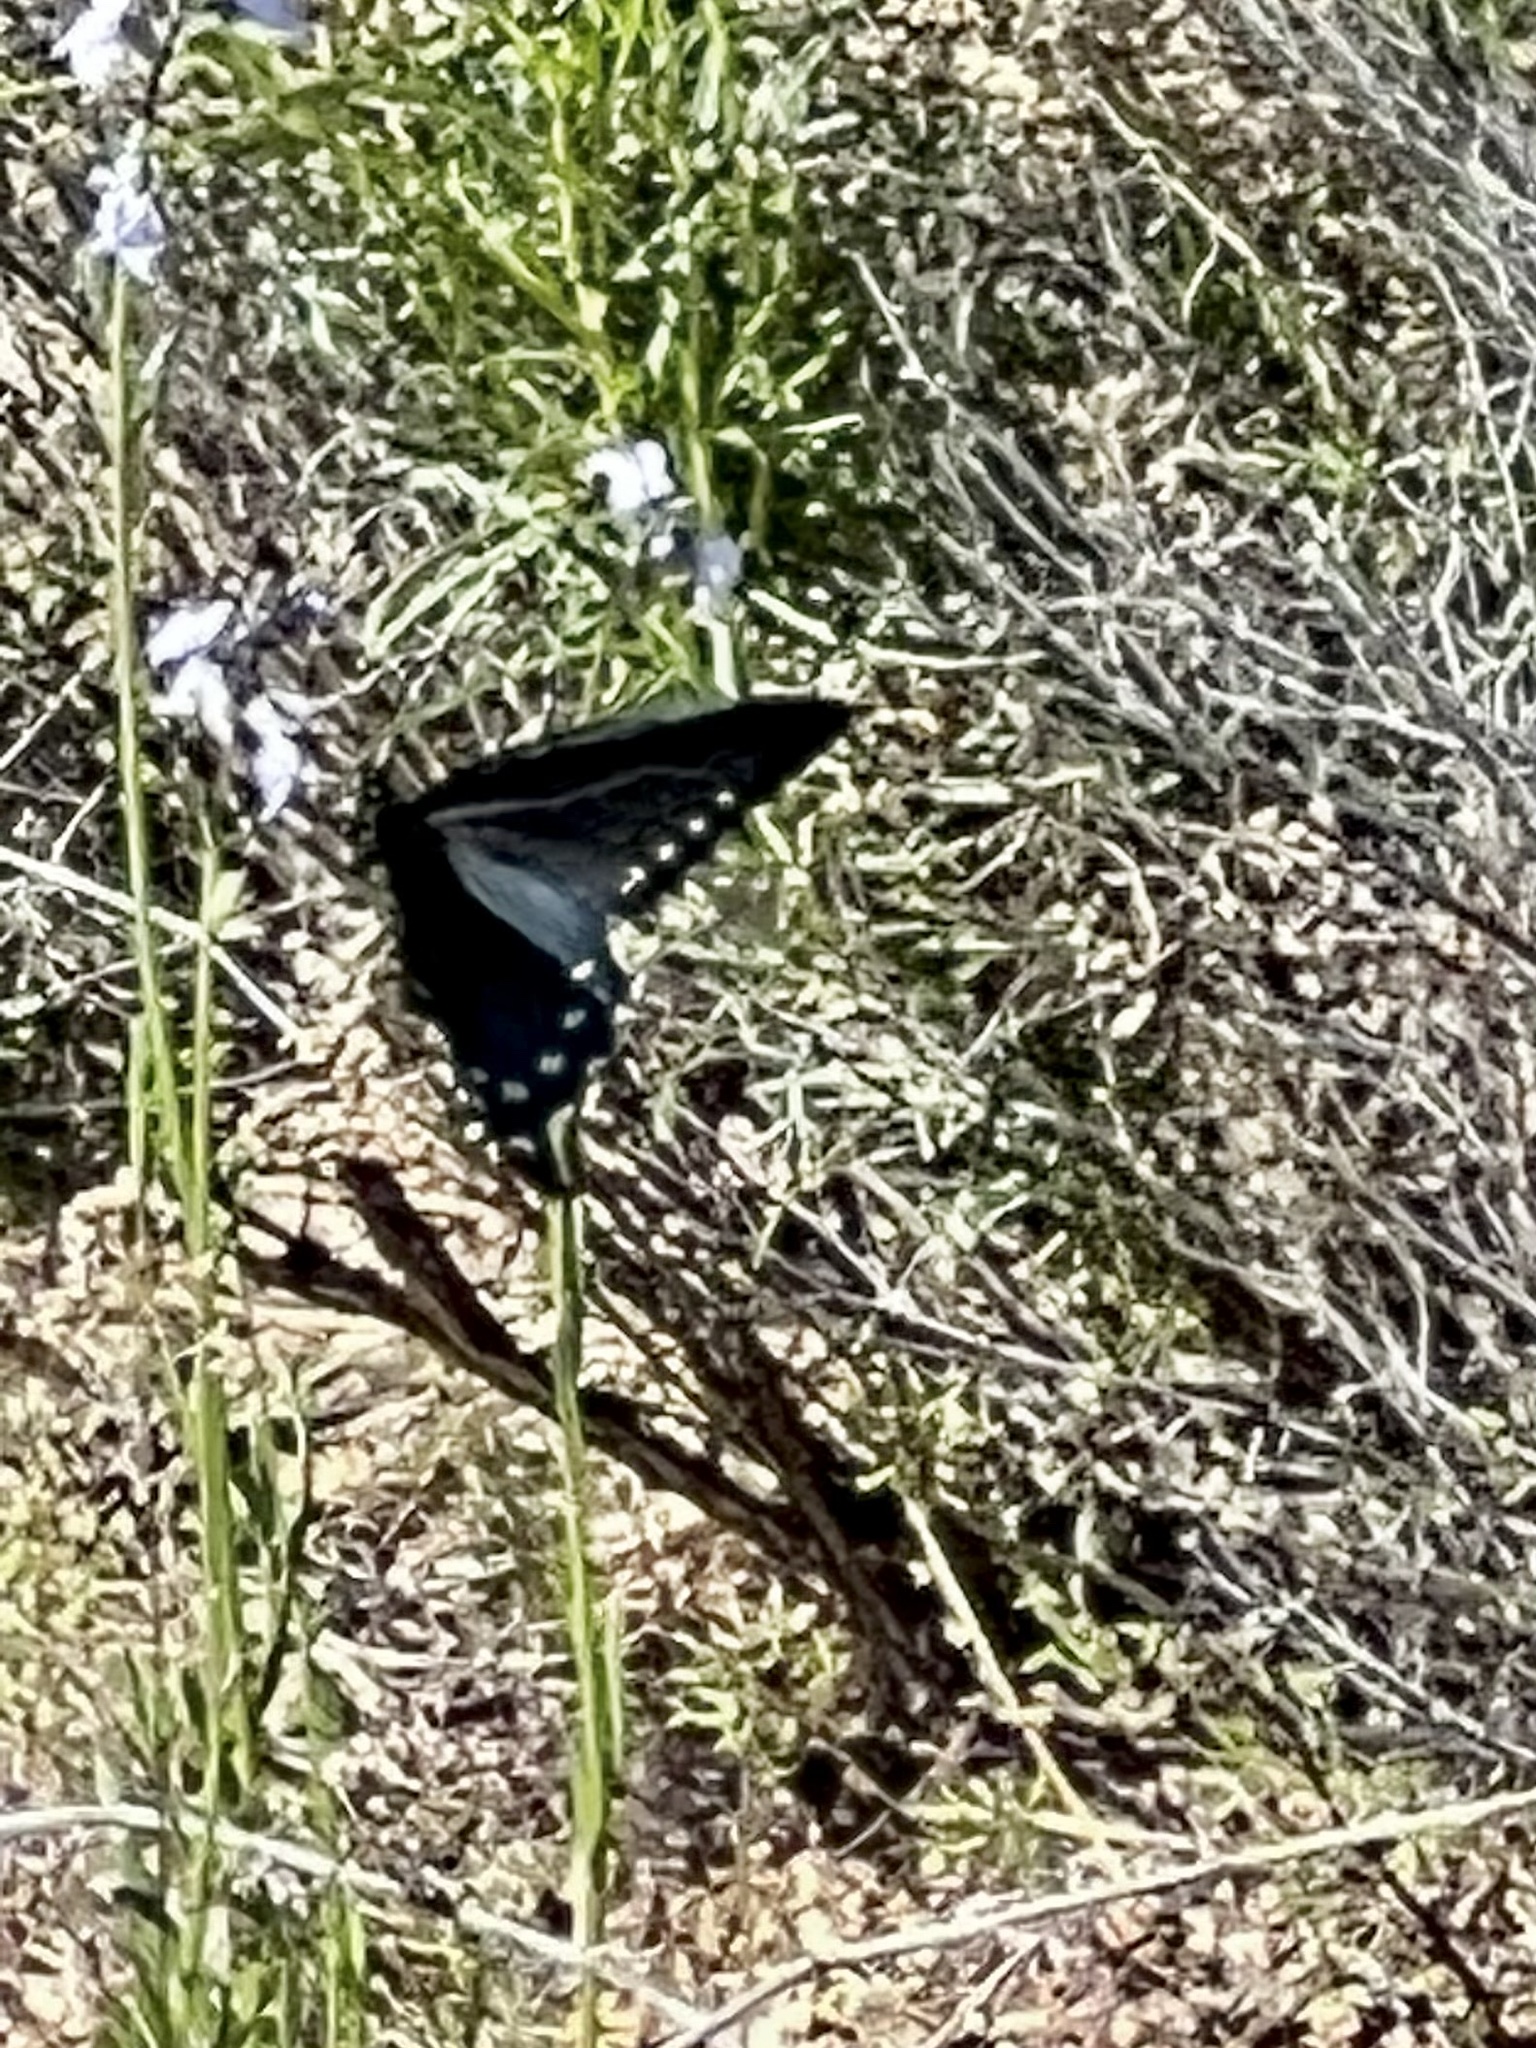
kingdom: Animalia
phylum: Arthropoda
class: Insecta
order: Lepidoptera
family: Papilionidae
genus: Battus
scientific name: Battus philenor
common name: Pipevine swallowtail
